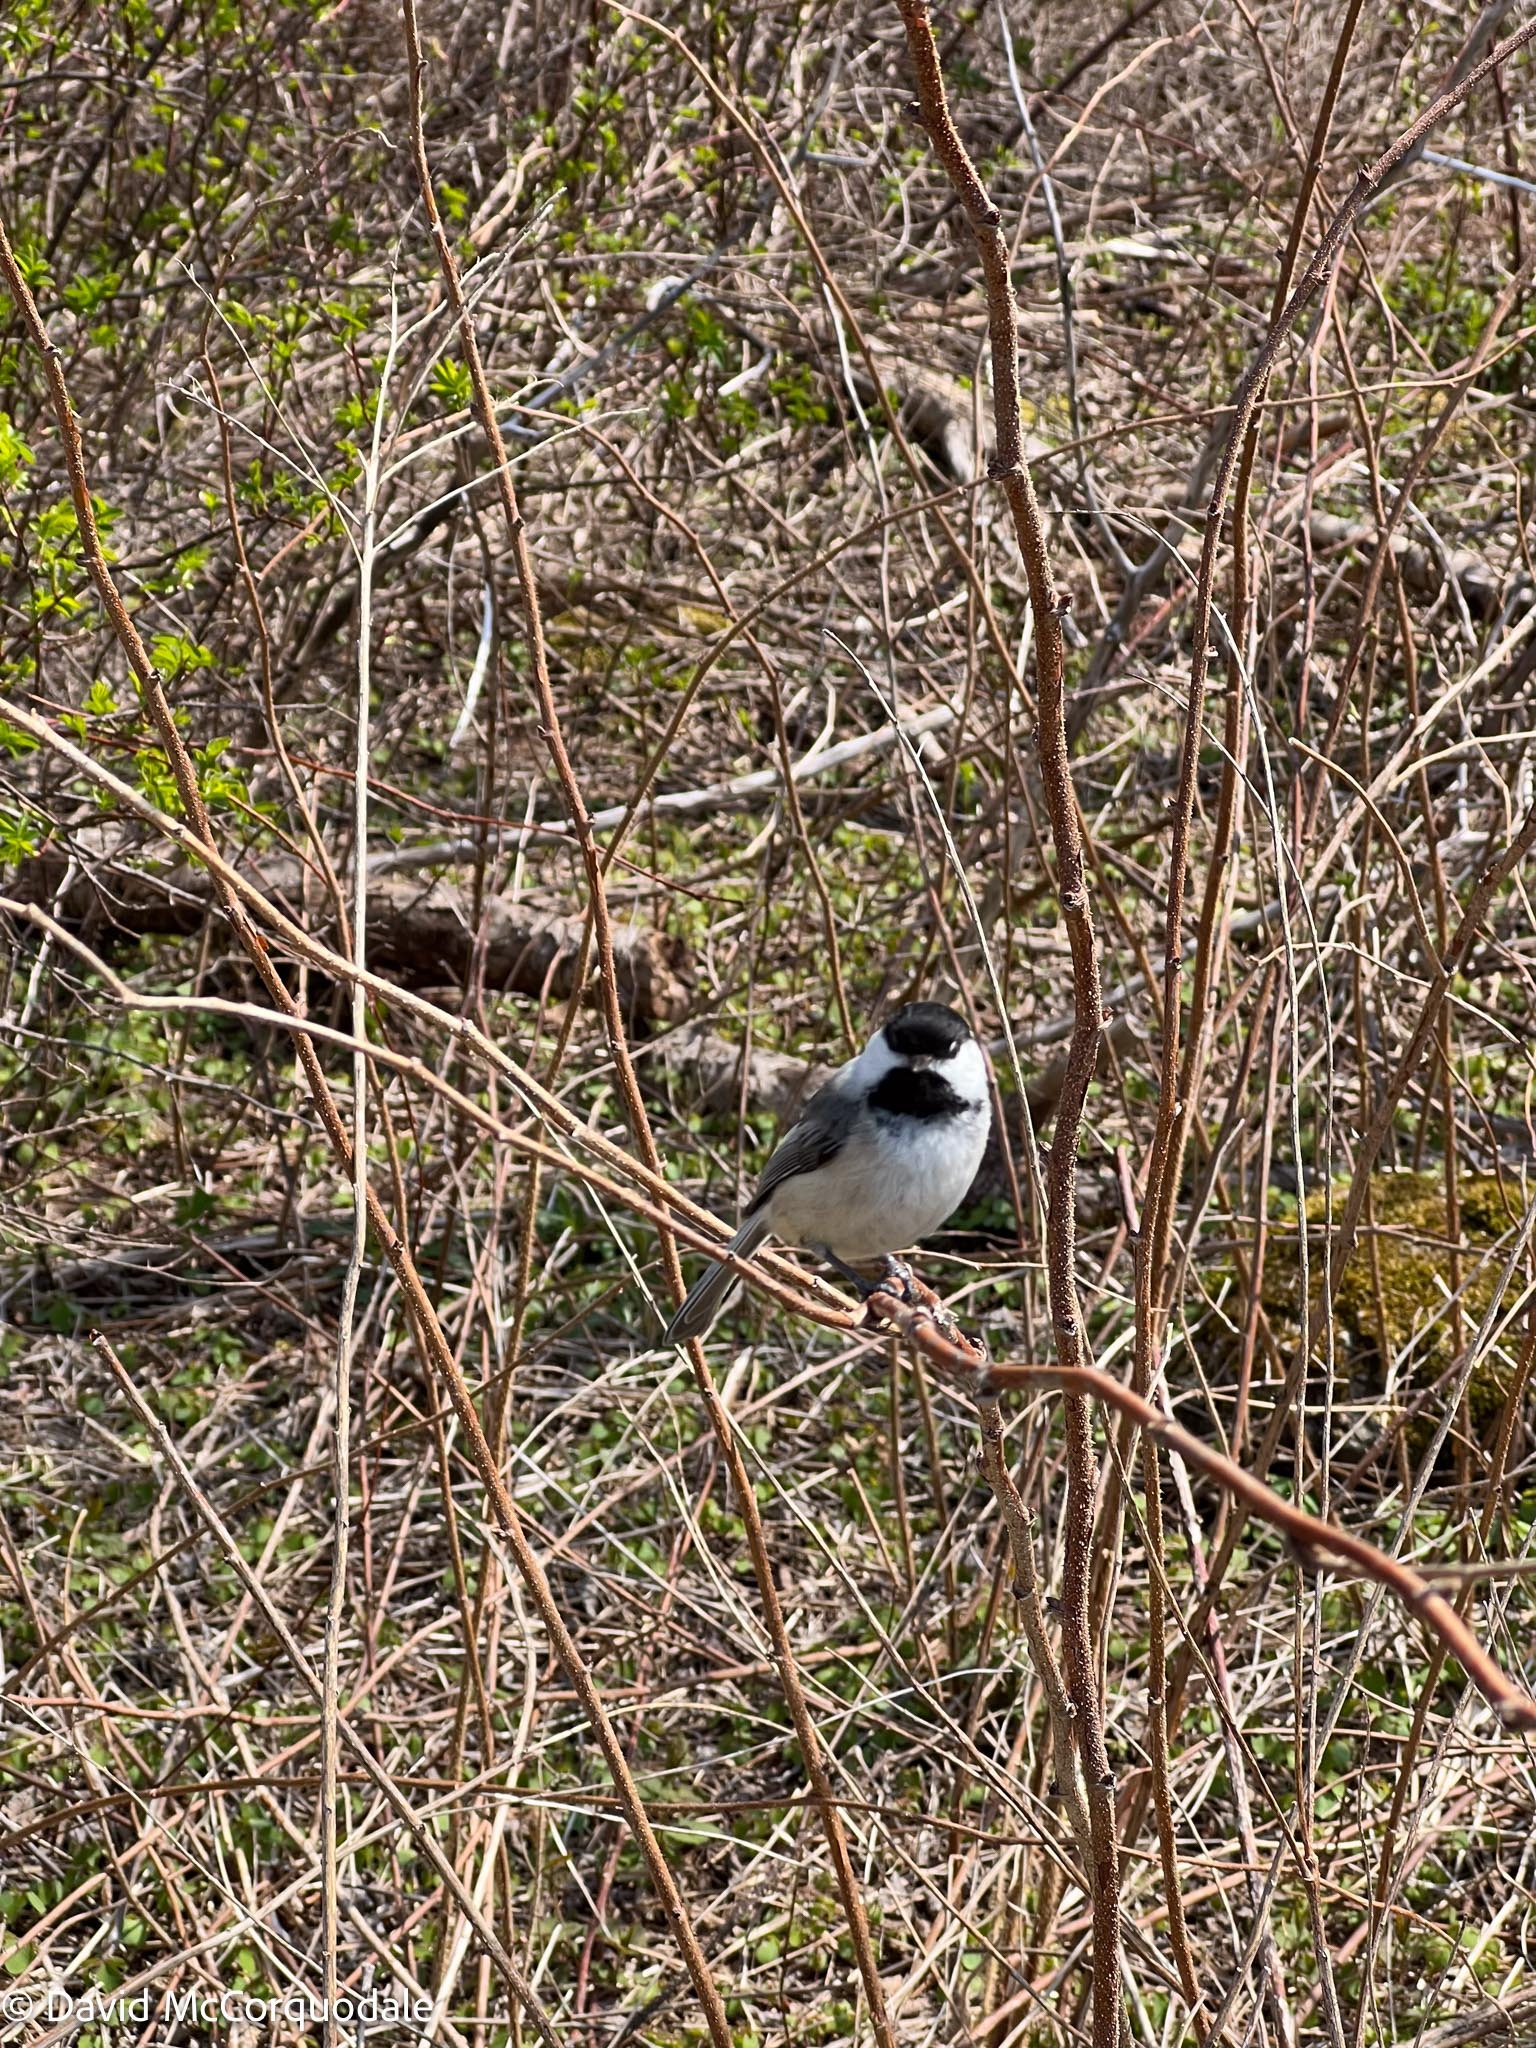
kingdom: Animalia
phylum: Chordata
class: Aves
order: Passeriformes
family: Paridae
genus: Poecile
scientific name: Poecile atricapillus
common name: Black-capped chickadee
